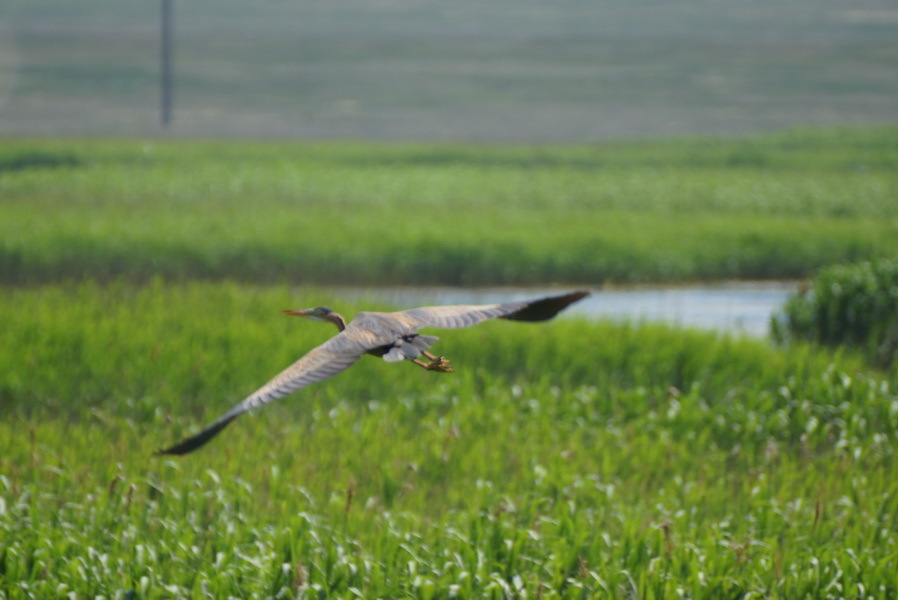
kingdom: Animalia
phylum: Chordata
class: Aves
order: Pelecaniformes
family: Ardeidae
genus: Ardea
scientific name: Ardea purpurea
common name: Purple heron
